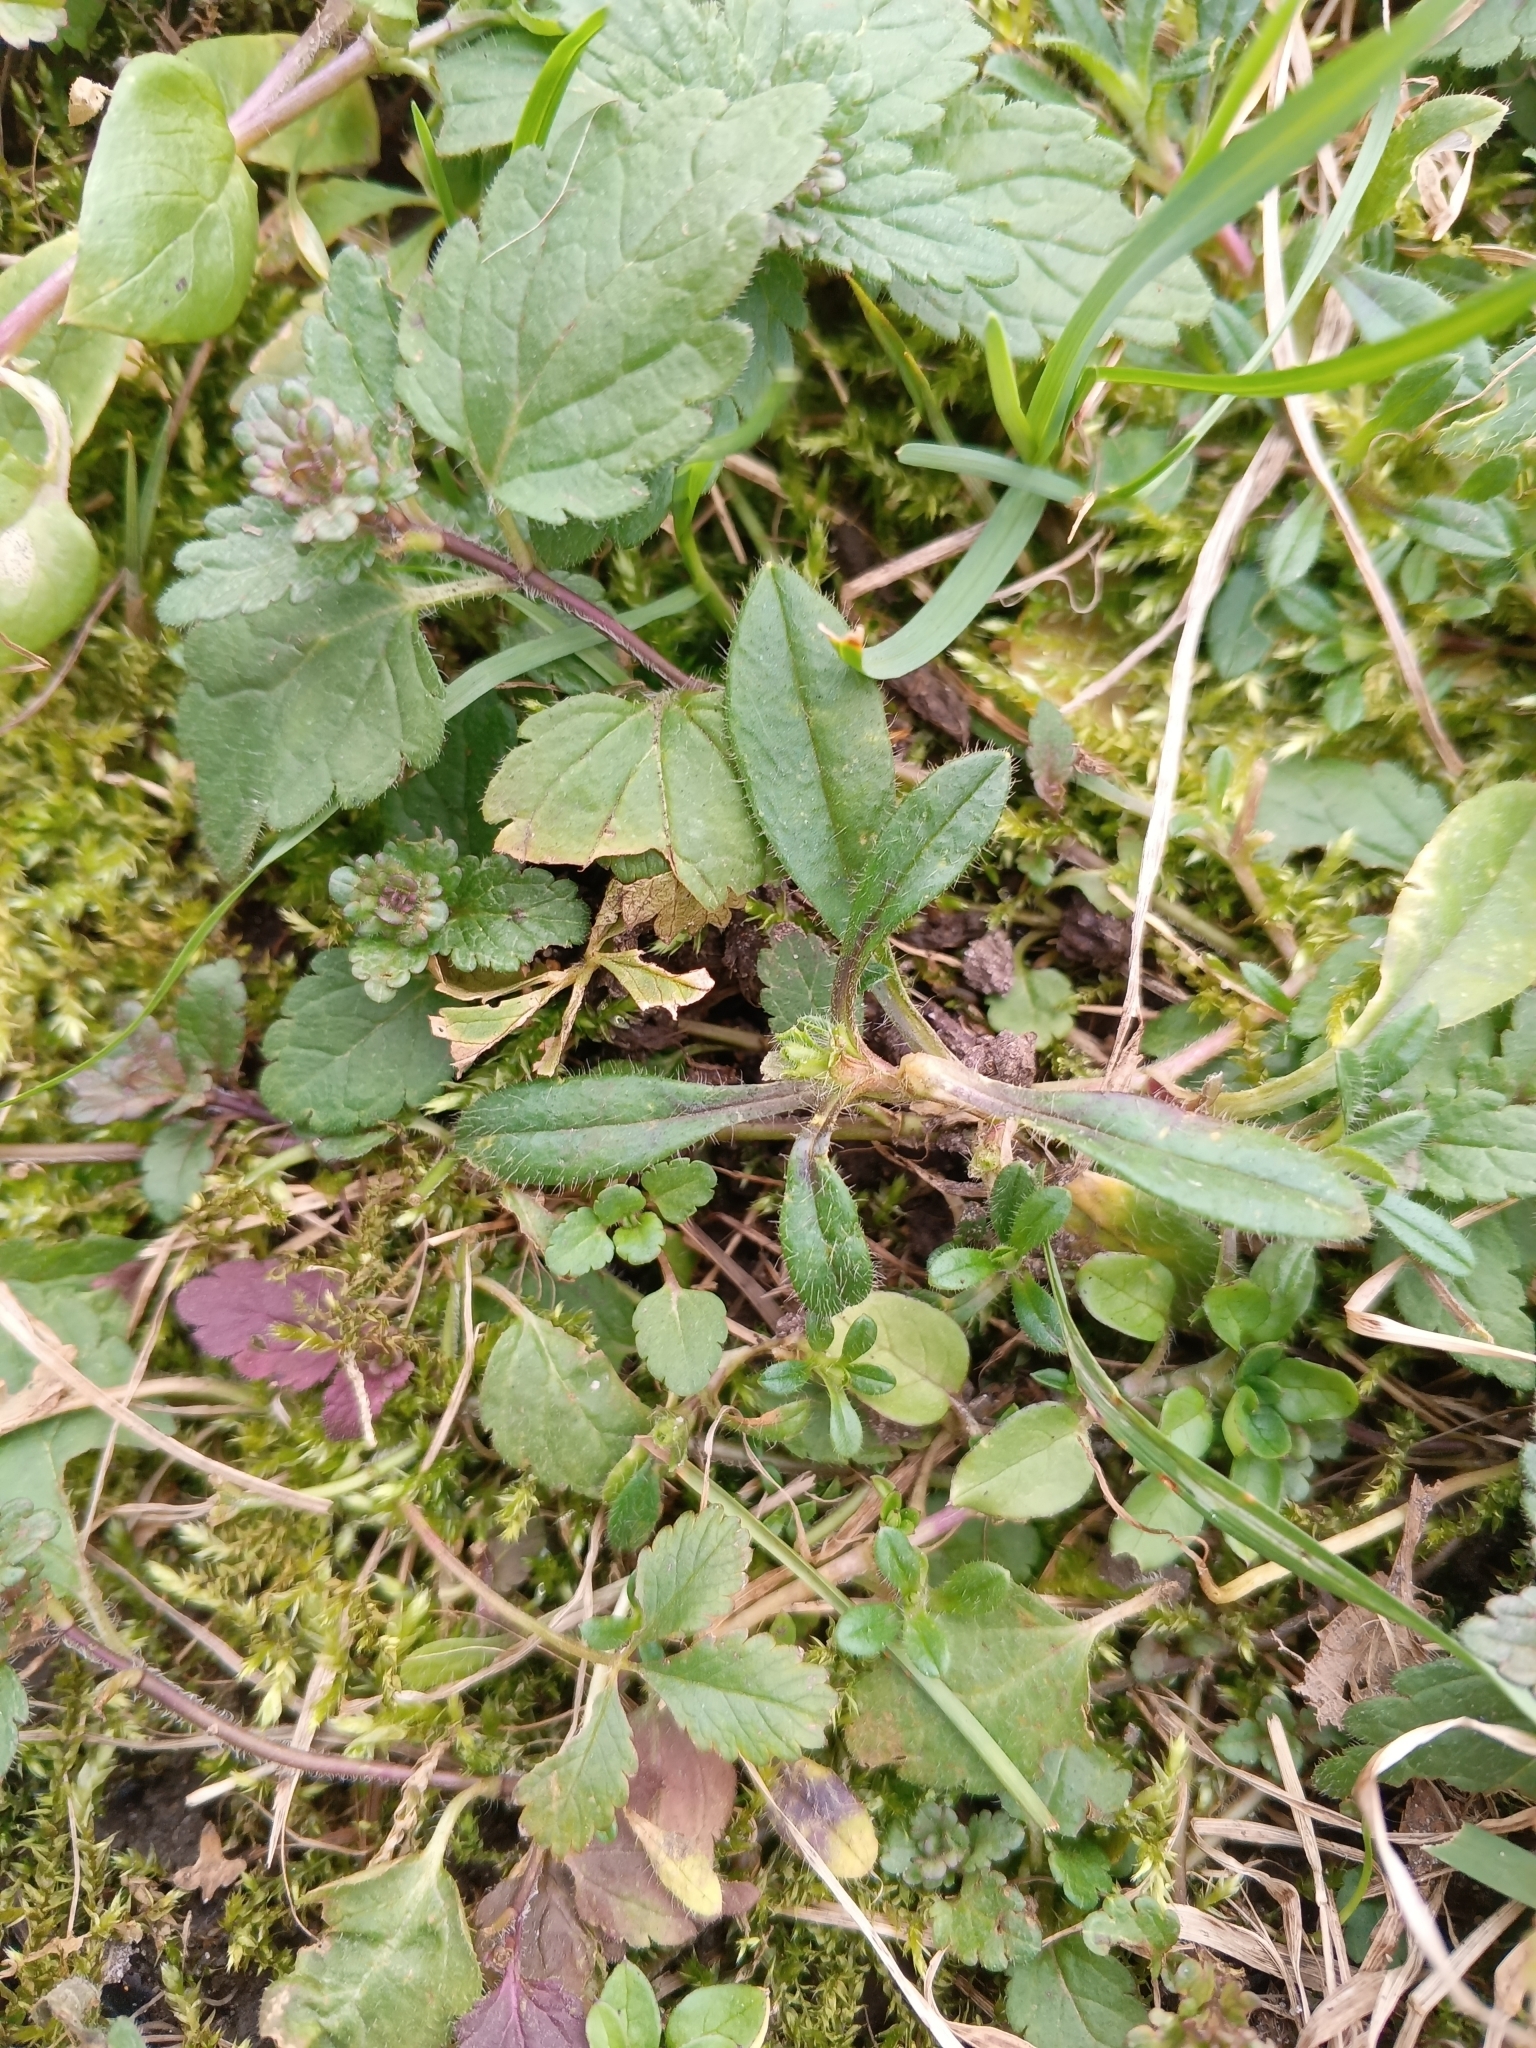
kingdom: Plantae
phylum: Tracheophyta
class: Magnoliopsida
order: Caryophyllales
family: Caryophyllaceae
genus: Cerastium
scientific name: Cerastium holosteoides
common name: Big chickweed
